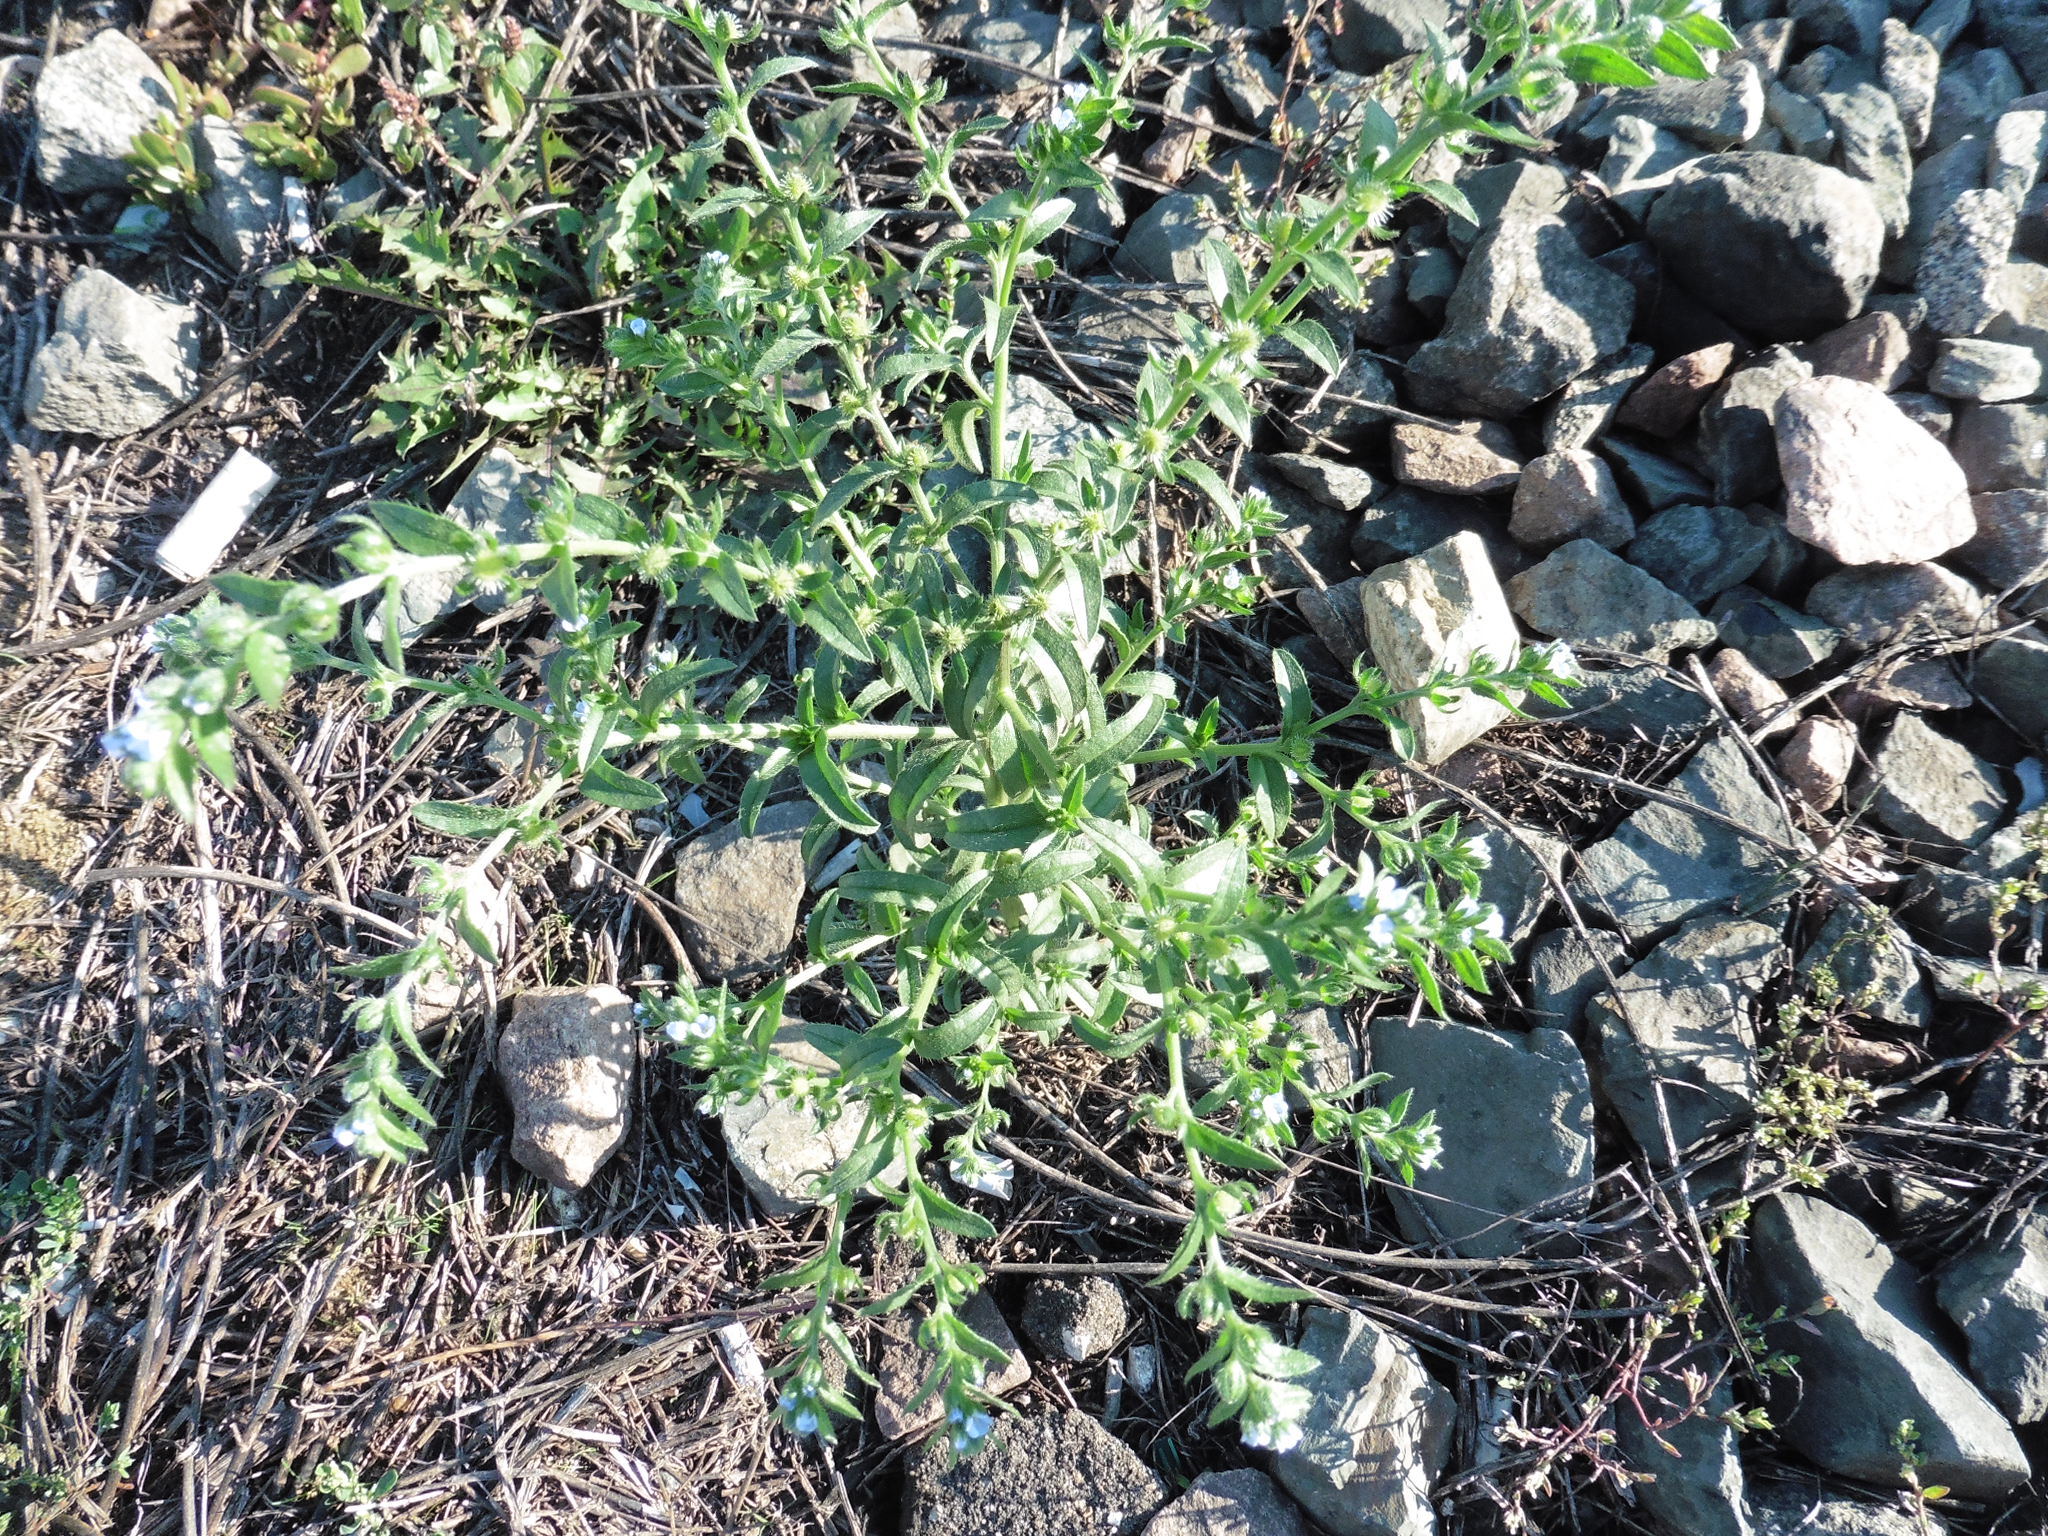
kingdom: Plantae
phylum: Tracheophyta
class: Magnoliopsida
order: Boraginales
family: Boraginaceae
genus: Lappula
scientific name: Lappula squarrosa
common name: European stickseed
